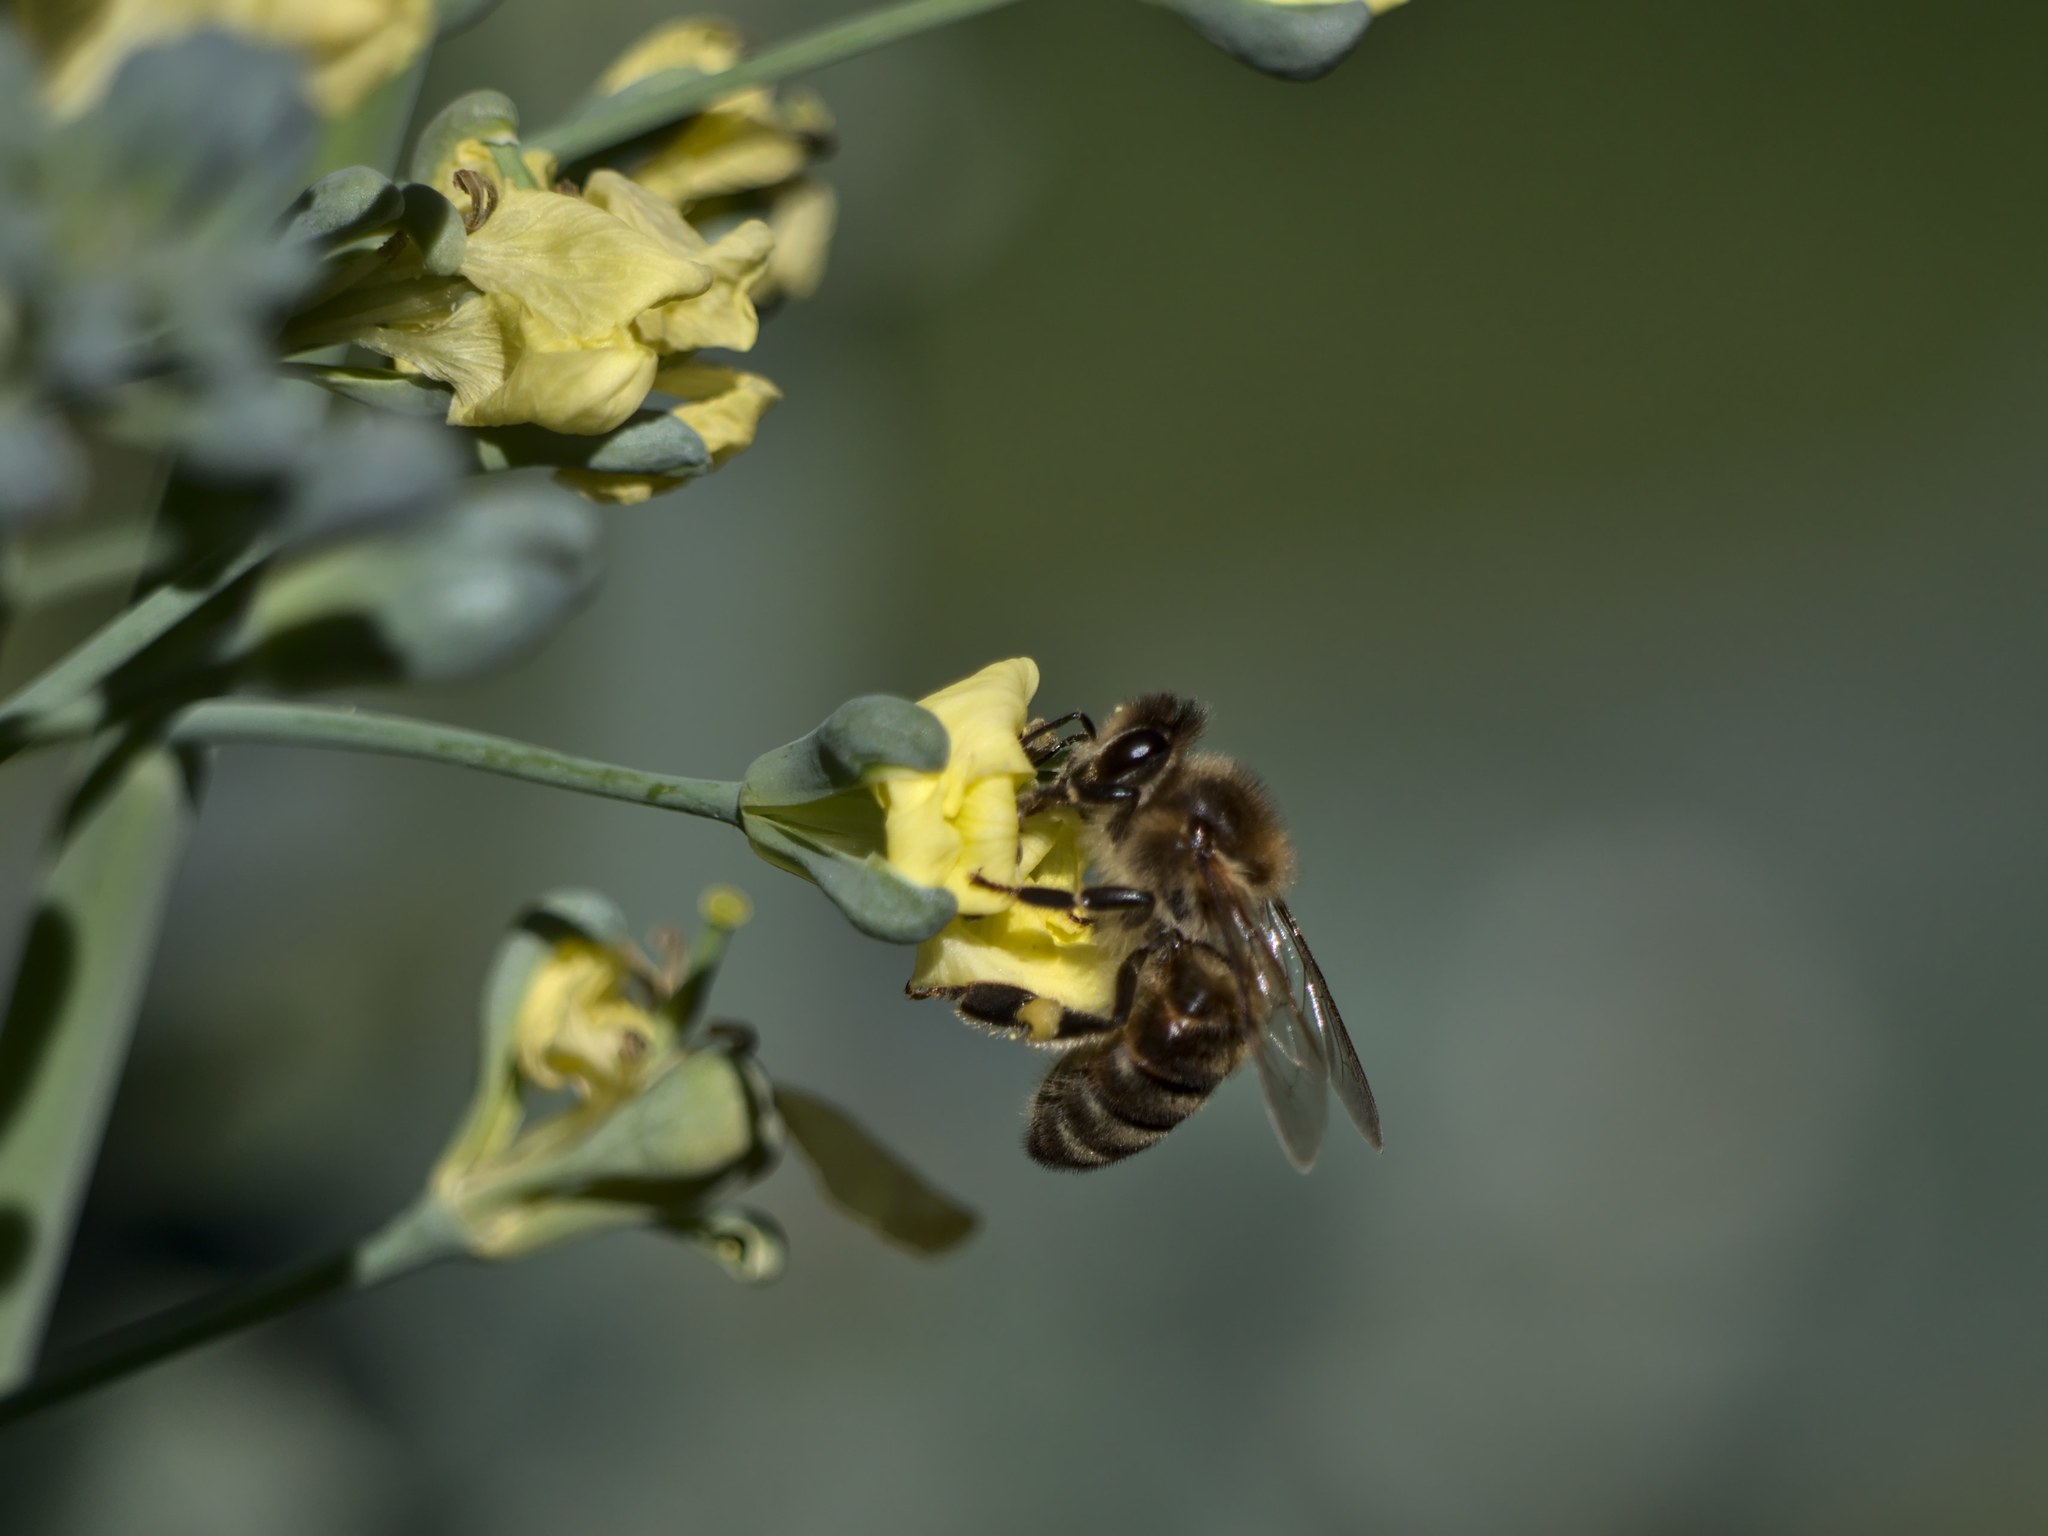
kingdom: Animalia
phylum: Arthropoda
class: Insecta
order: Hymenoptera
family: Apidae
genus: Apis
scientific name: Apis mellifera
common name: Honey bee
